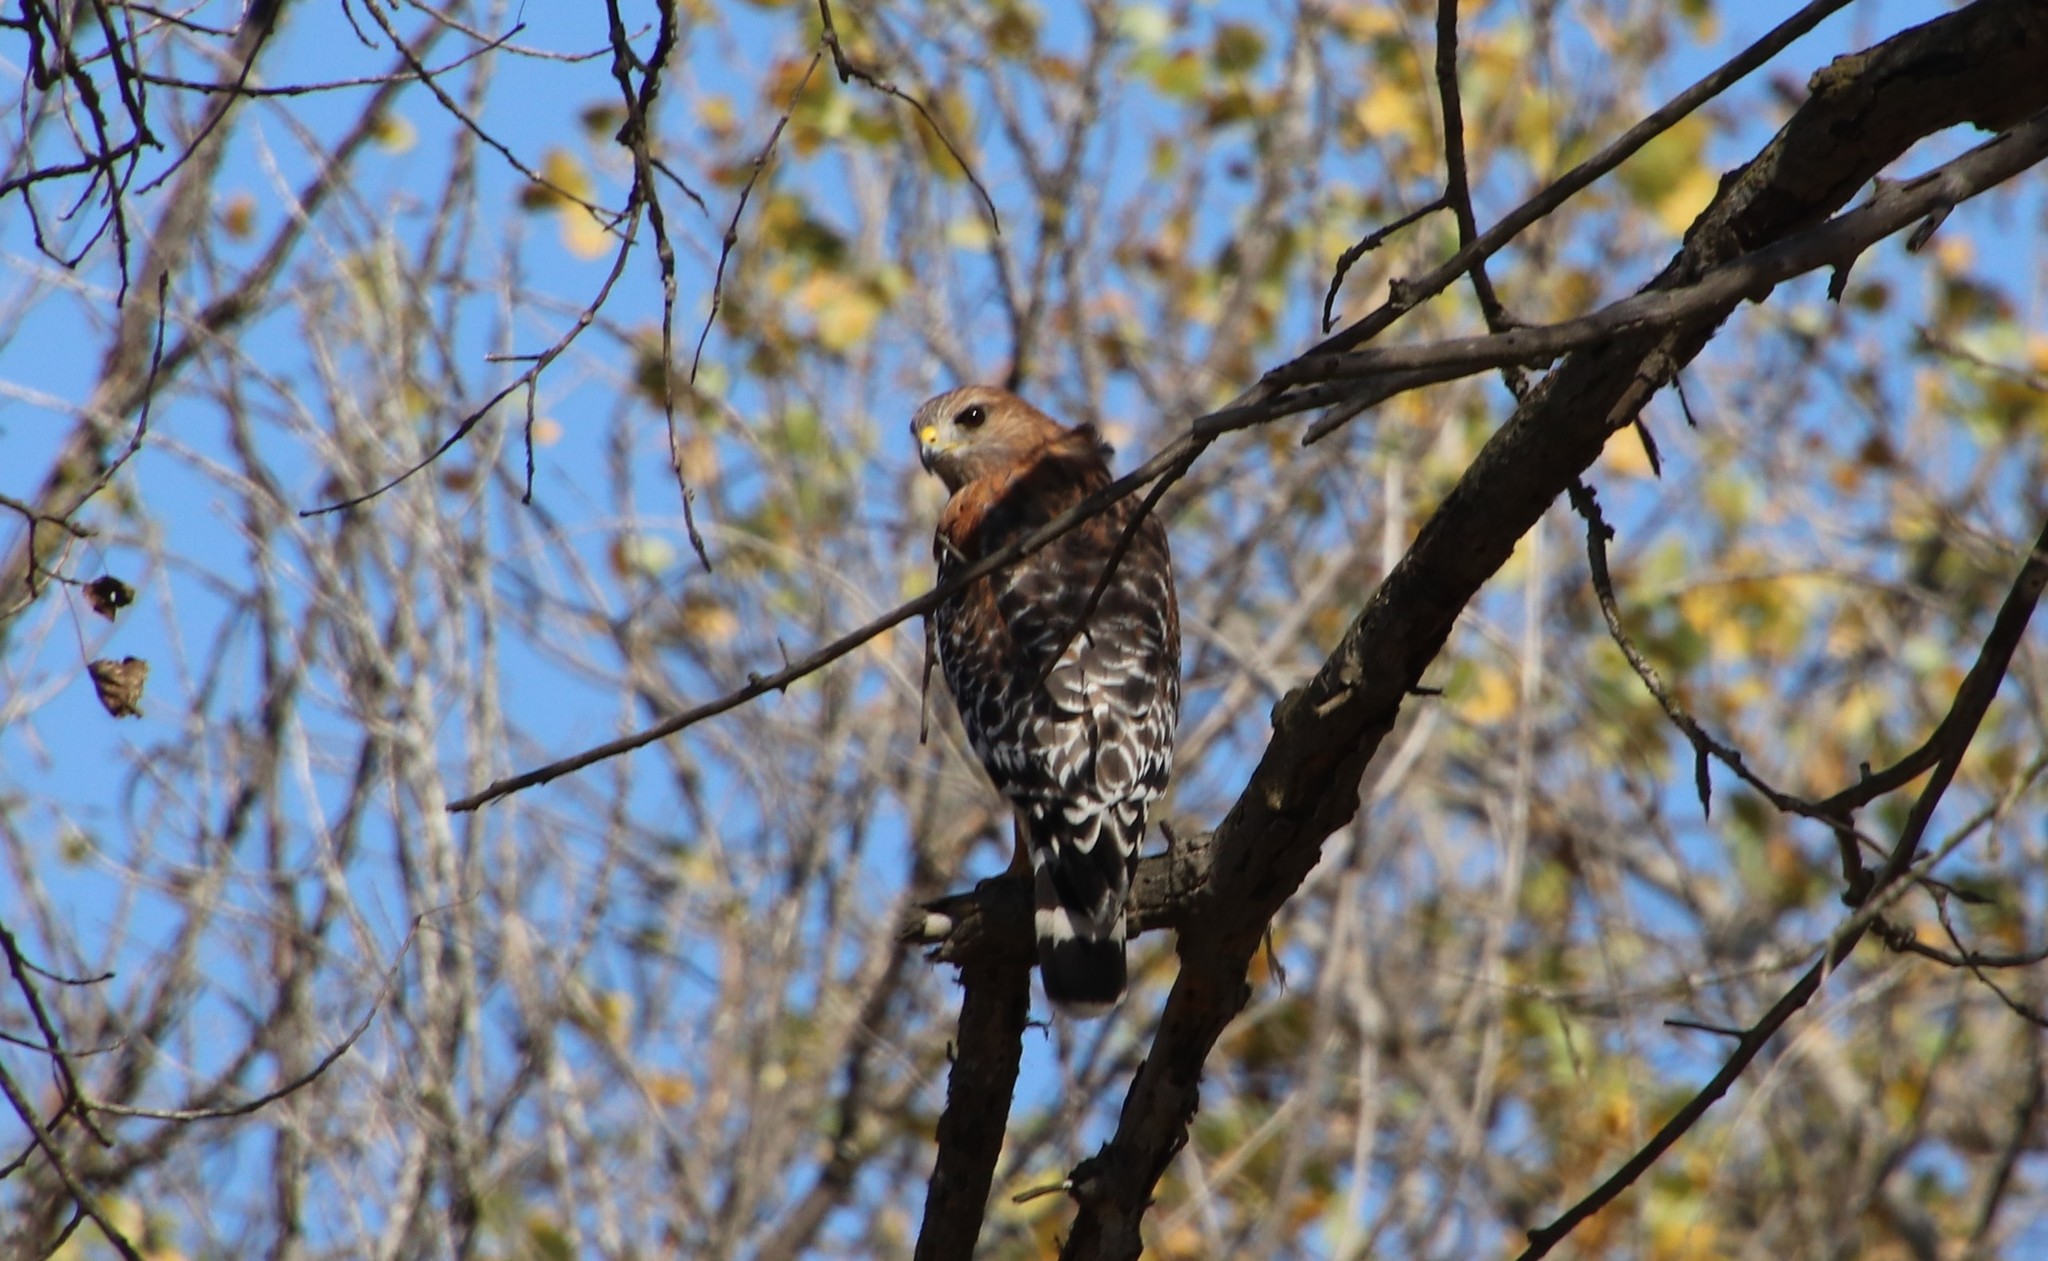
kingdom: Animalia
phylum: Chordata
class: Aves
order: Accipitriformes
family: Accipitridae
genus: Buteo
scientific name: Buteo lineatus
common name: Red-shouldered hawk
